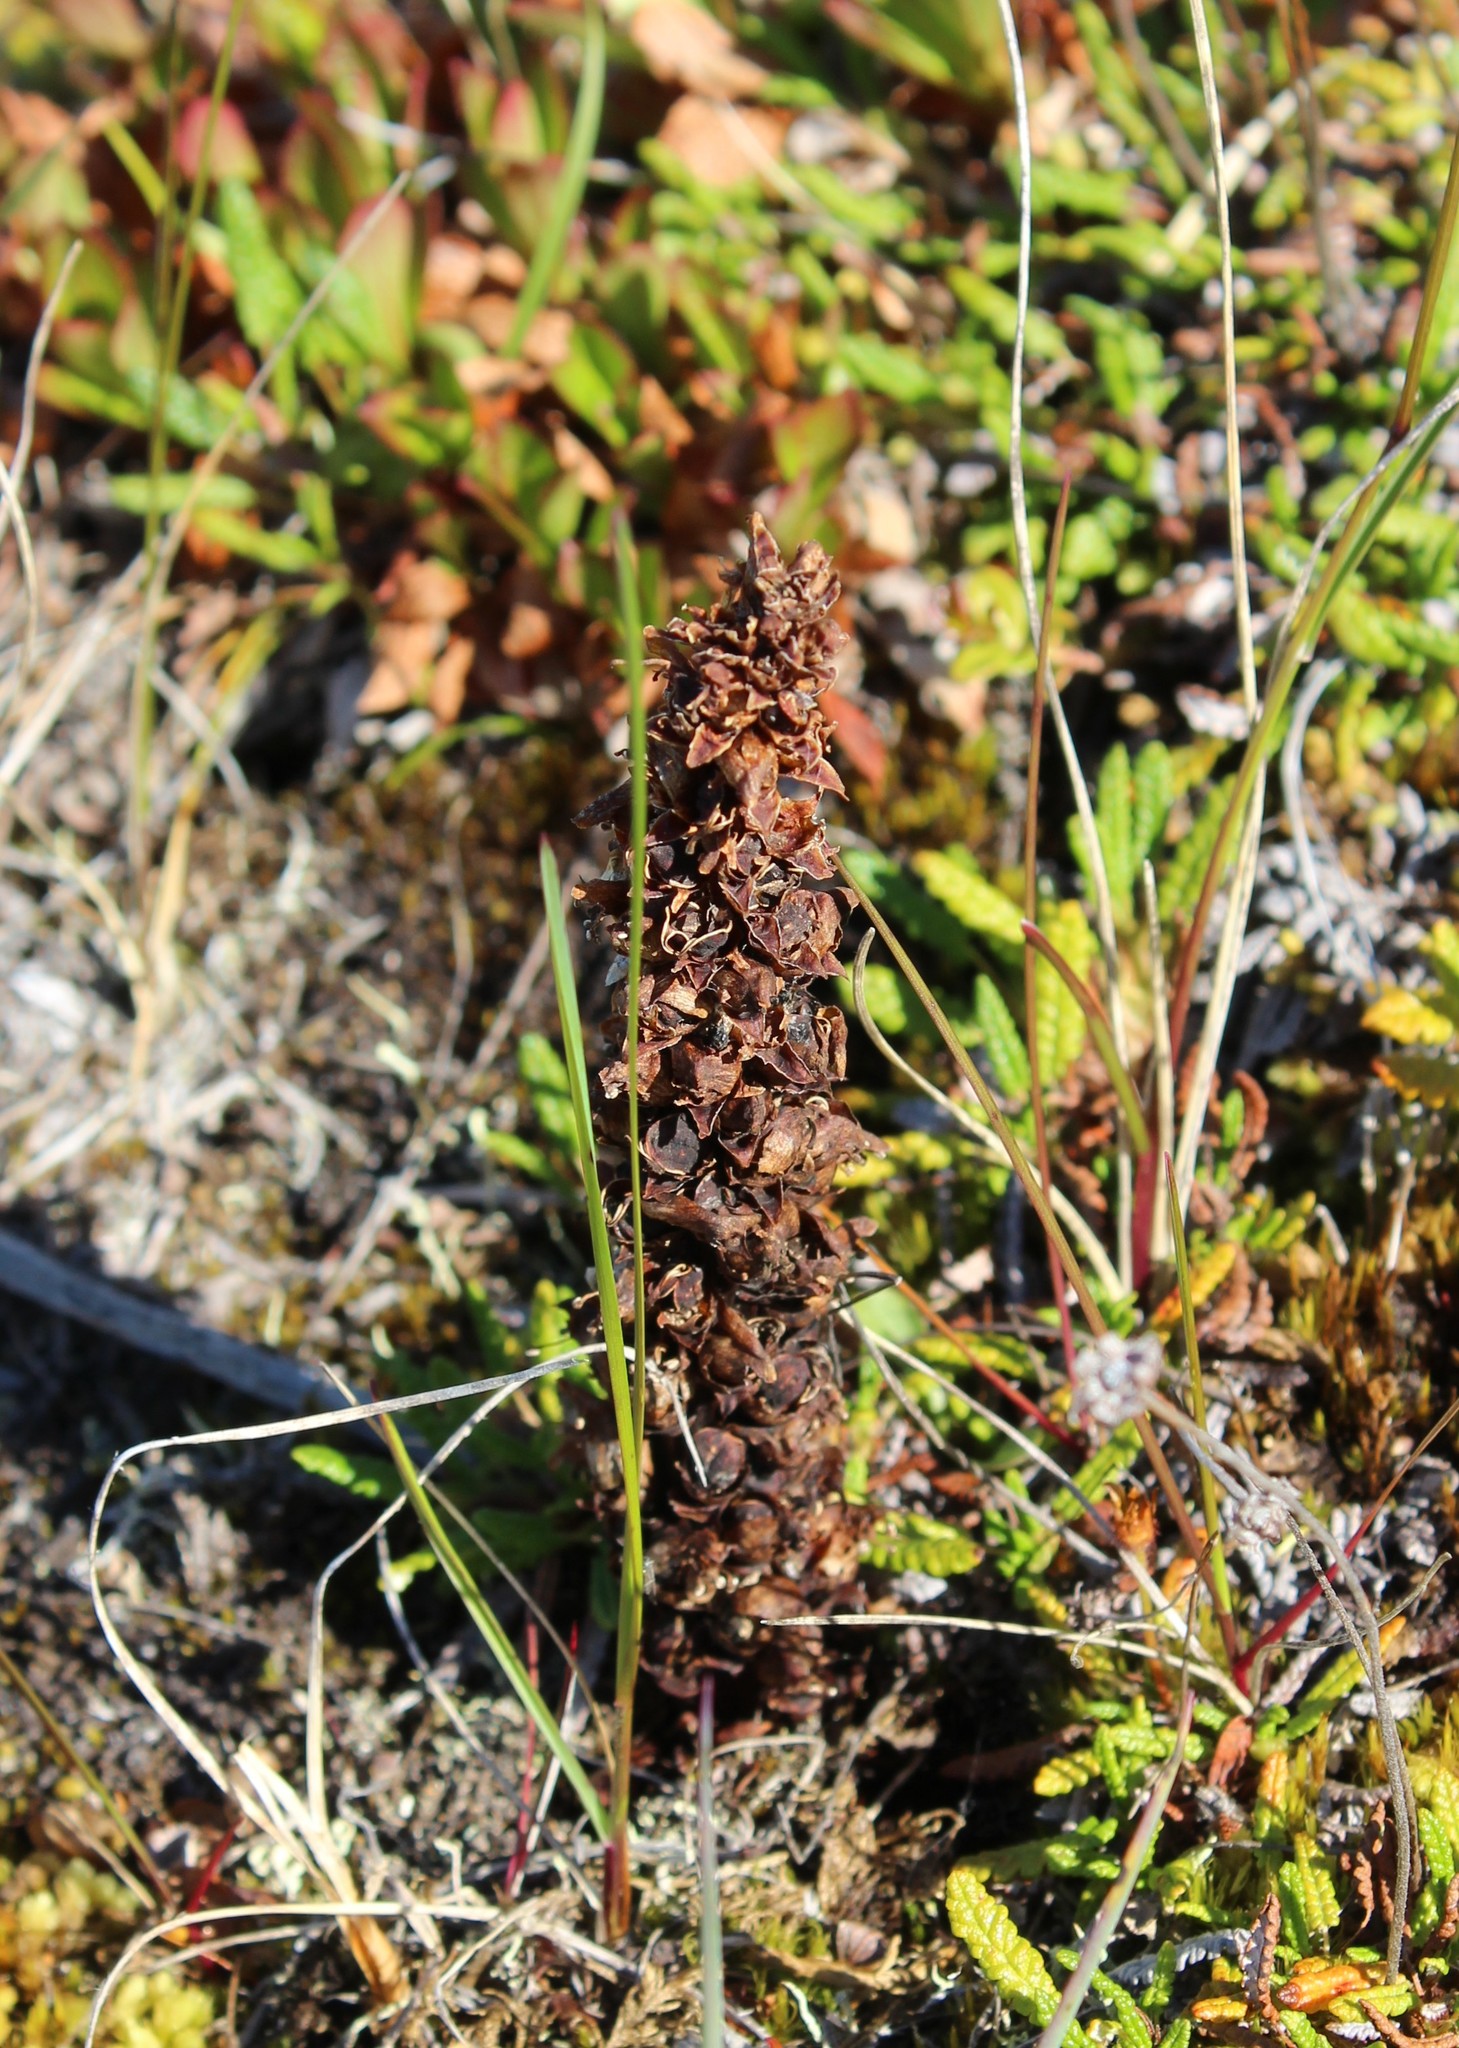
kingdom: Plantae
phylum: Tracheophyta
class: Magnoliopsida
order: Lamiales
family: Orobanchaceae
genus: Boschniakia
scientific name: Boschniakia rossica
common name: Poque
